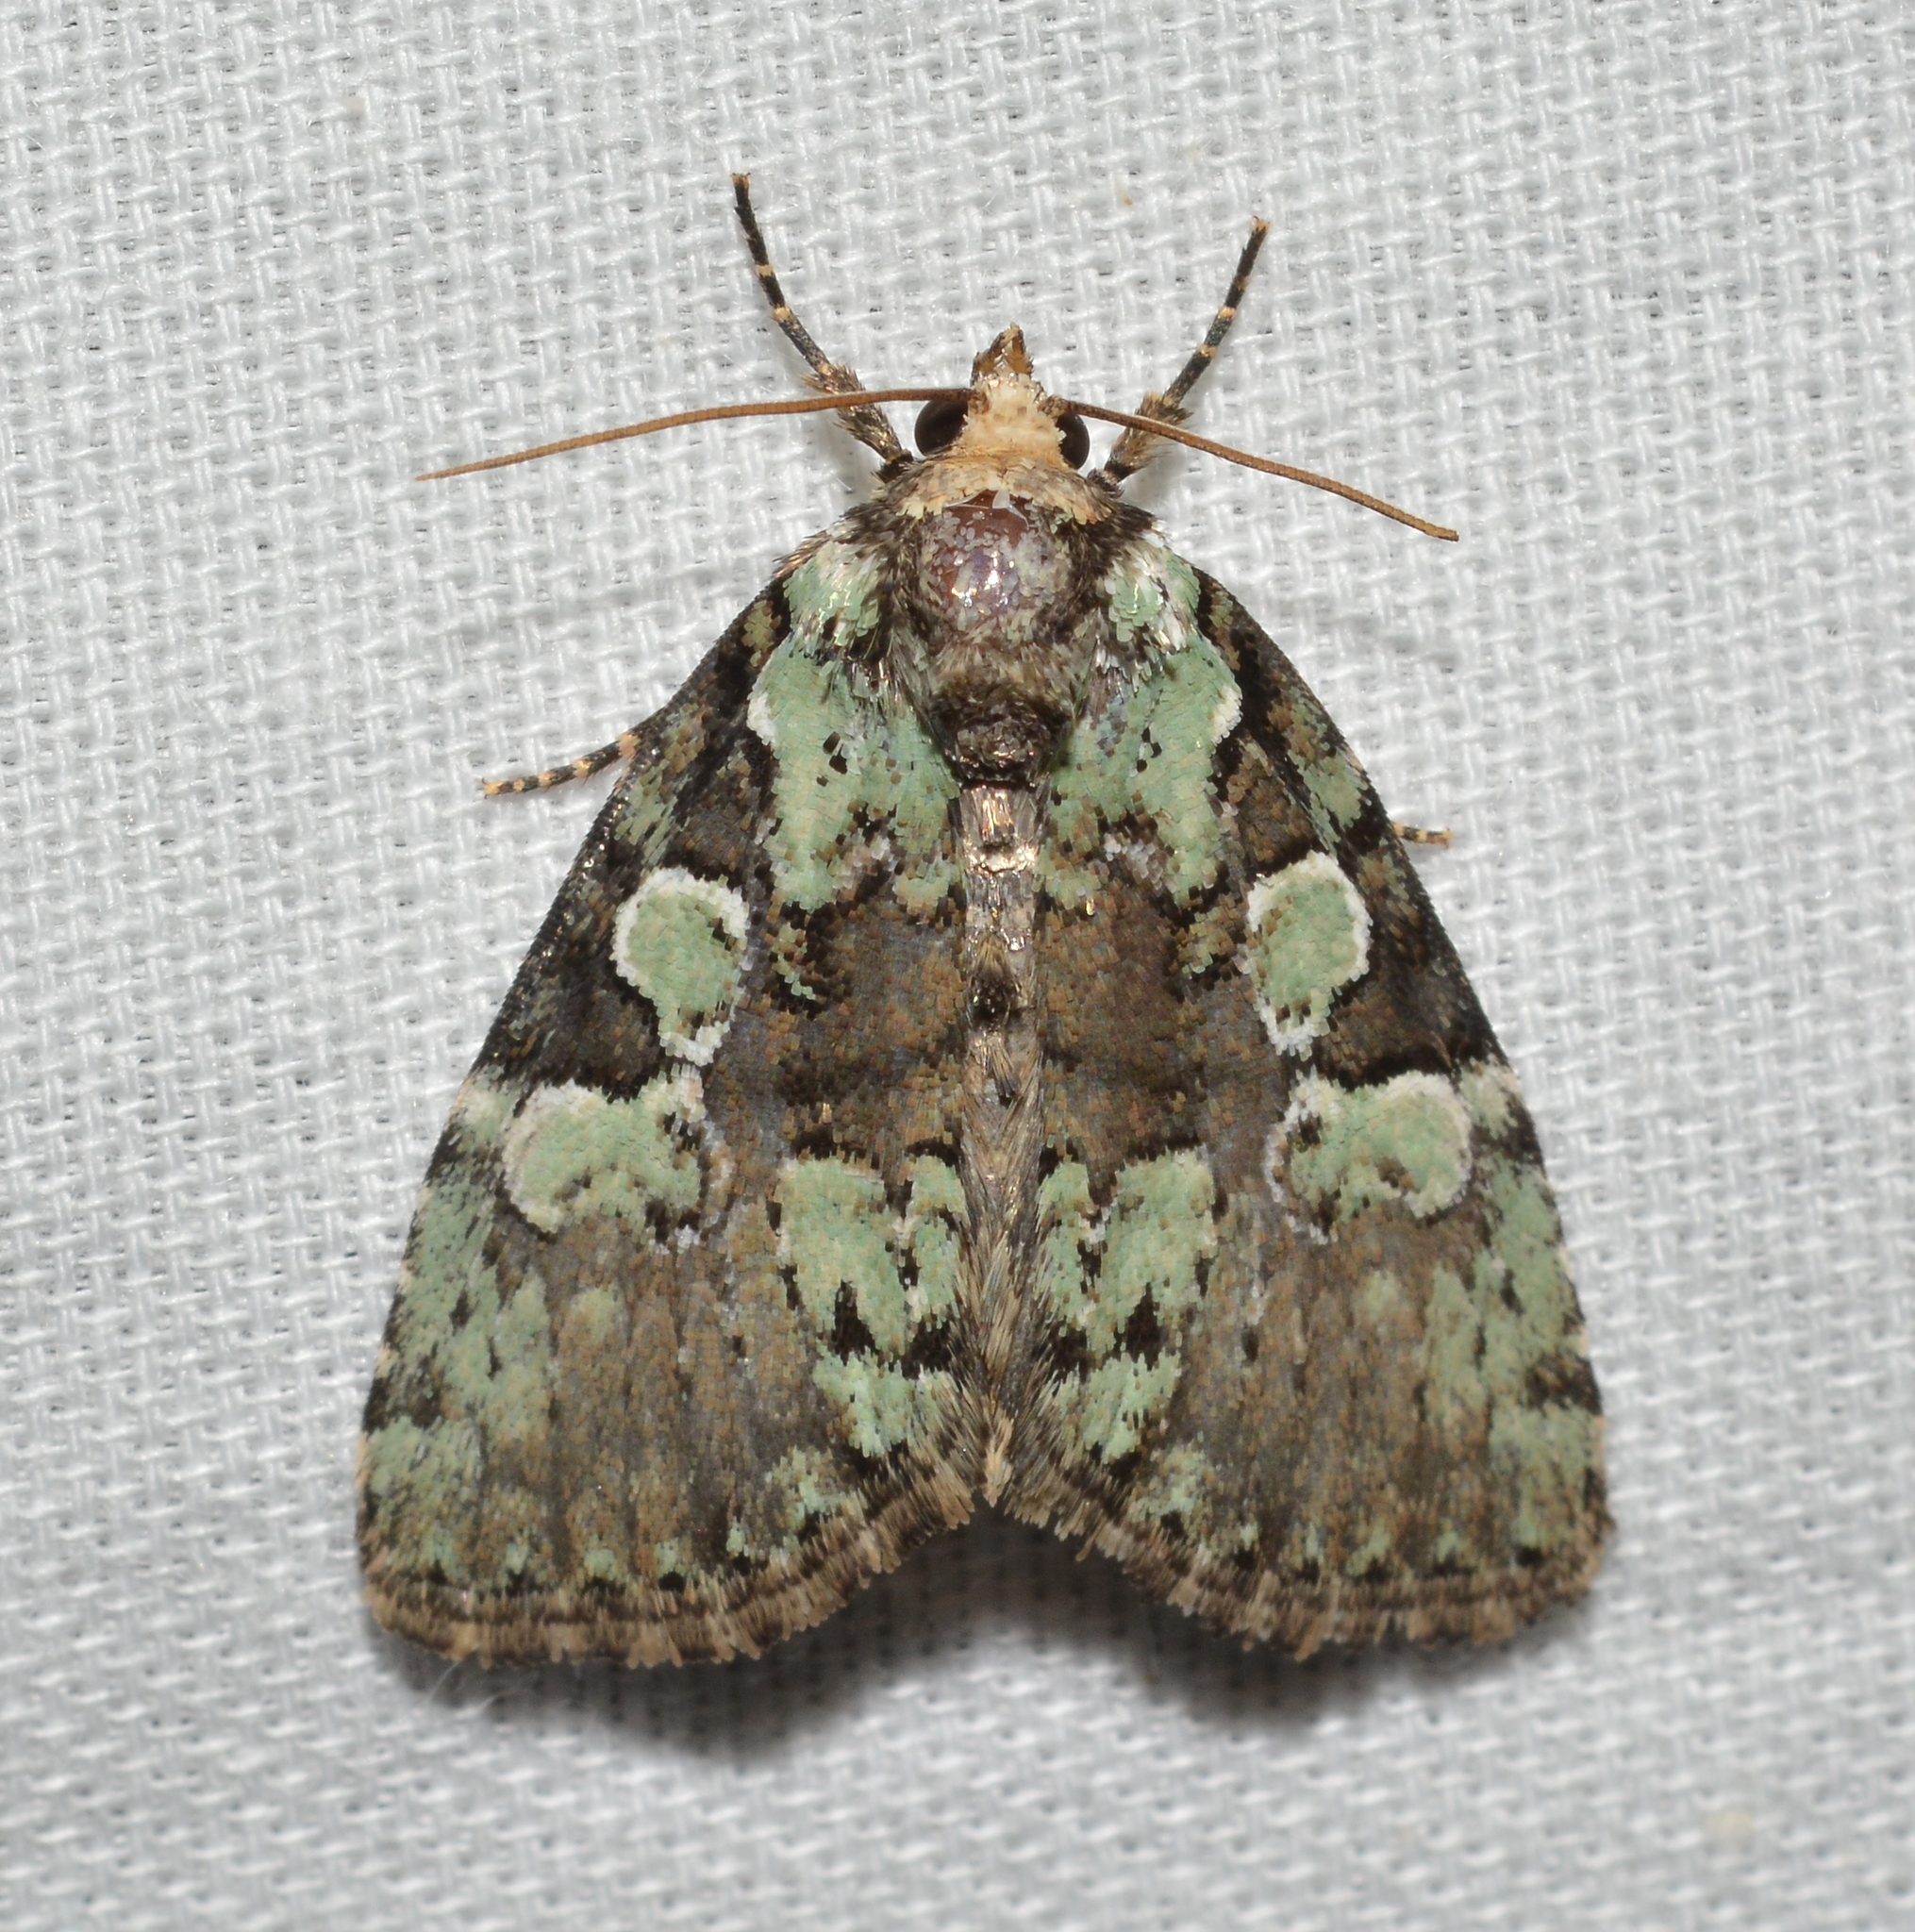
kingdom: Animalia
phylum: Arthropoda
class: Insecta
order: Lepidoptera
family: Noctuidae
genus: Leuconycta
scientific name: Leuconycta lepidula
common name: Marbled-green leuconycta moth
